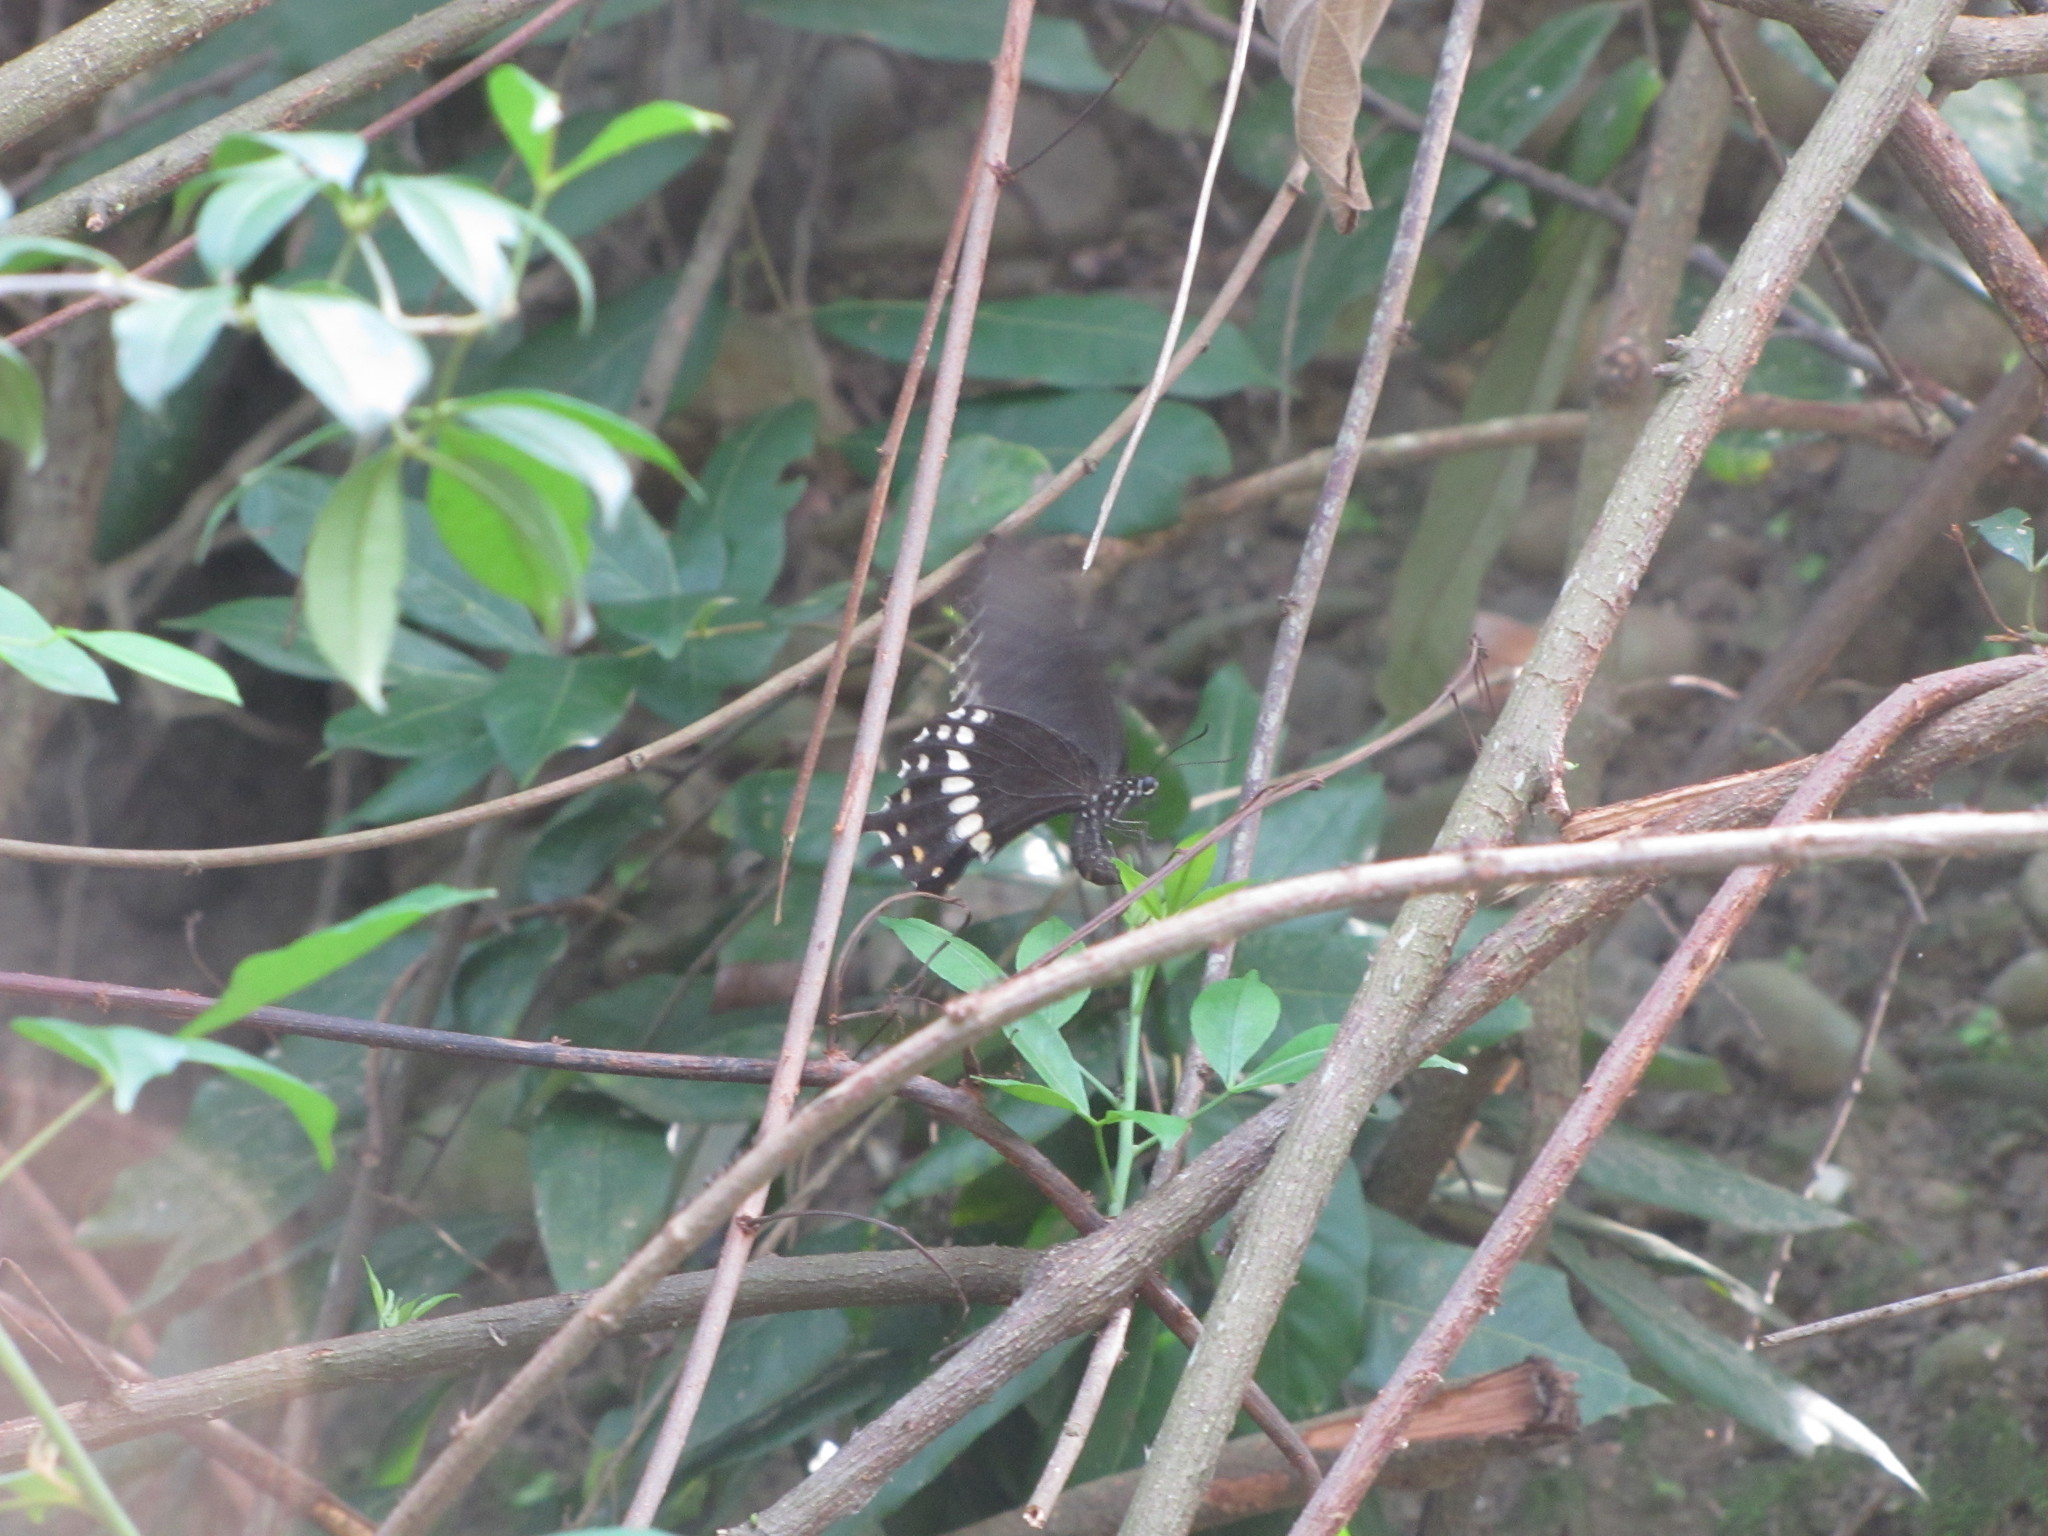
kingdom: Animalia
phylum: Arthropoda
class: Insecta
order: Lepidoptera
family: Papilionidae
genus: Papilio
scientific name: Papilio polytes
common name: Common mormon
